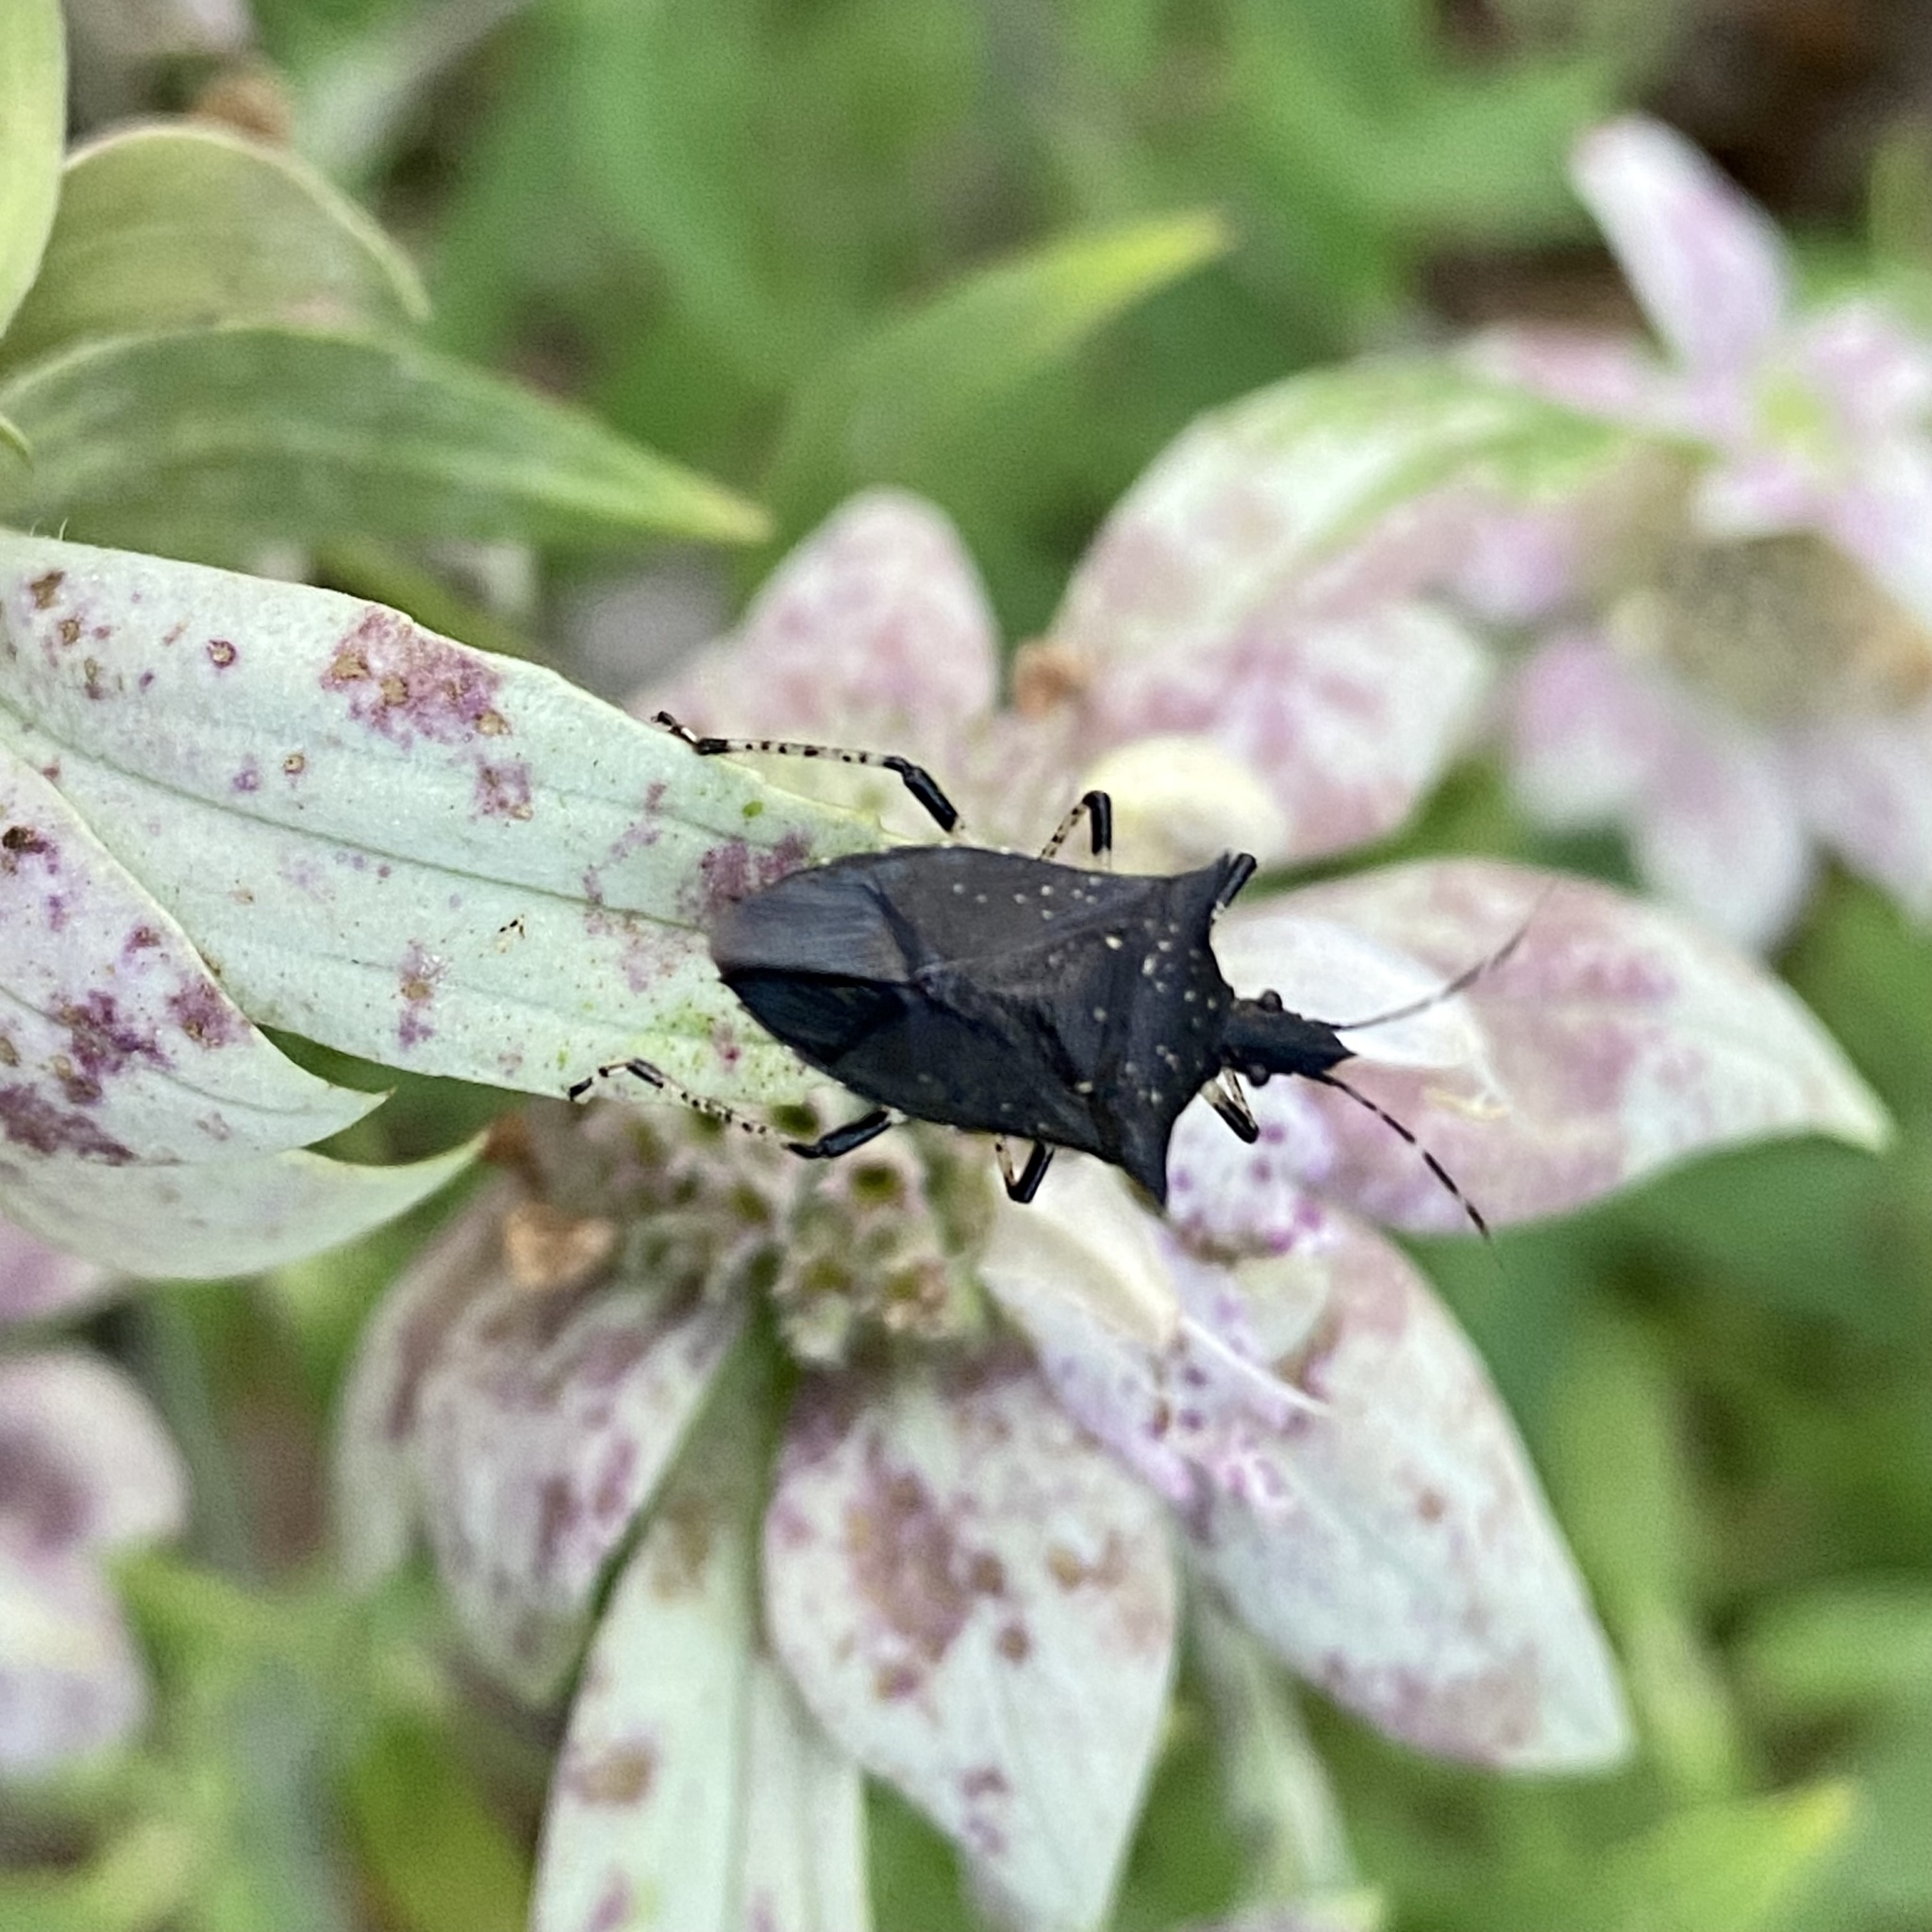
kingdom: Animalia
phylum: Arthropoda
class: Insecta
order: Hemiptera
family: Pentatomidae
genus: Proxys
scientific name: Proxys punctulatus
